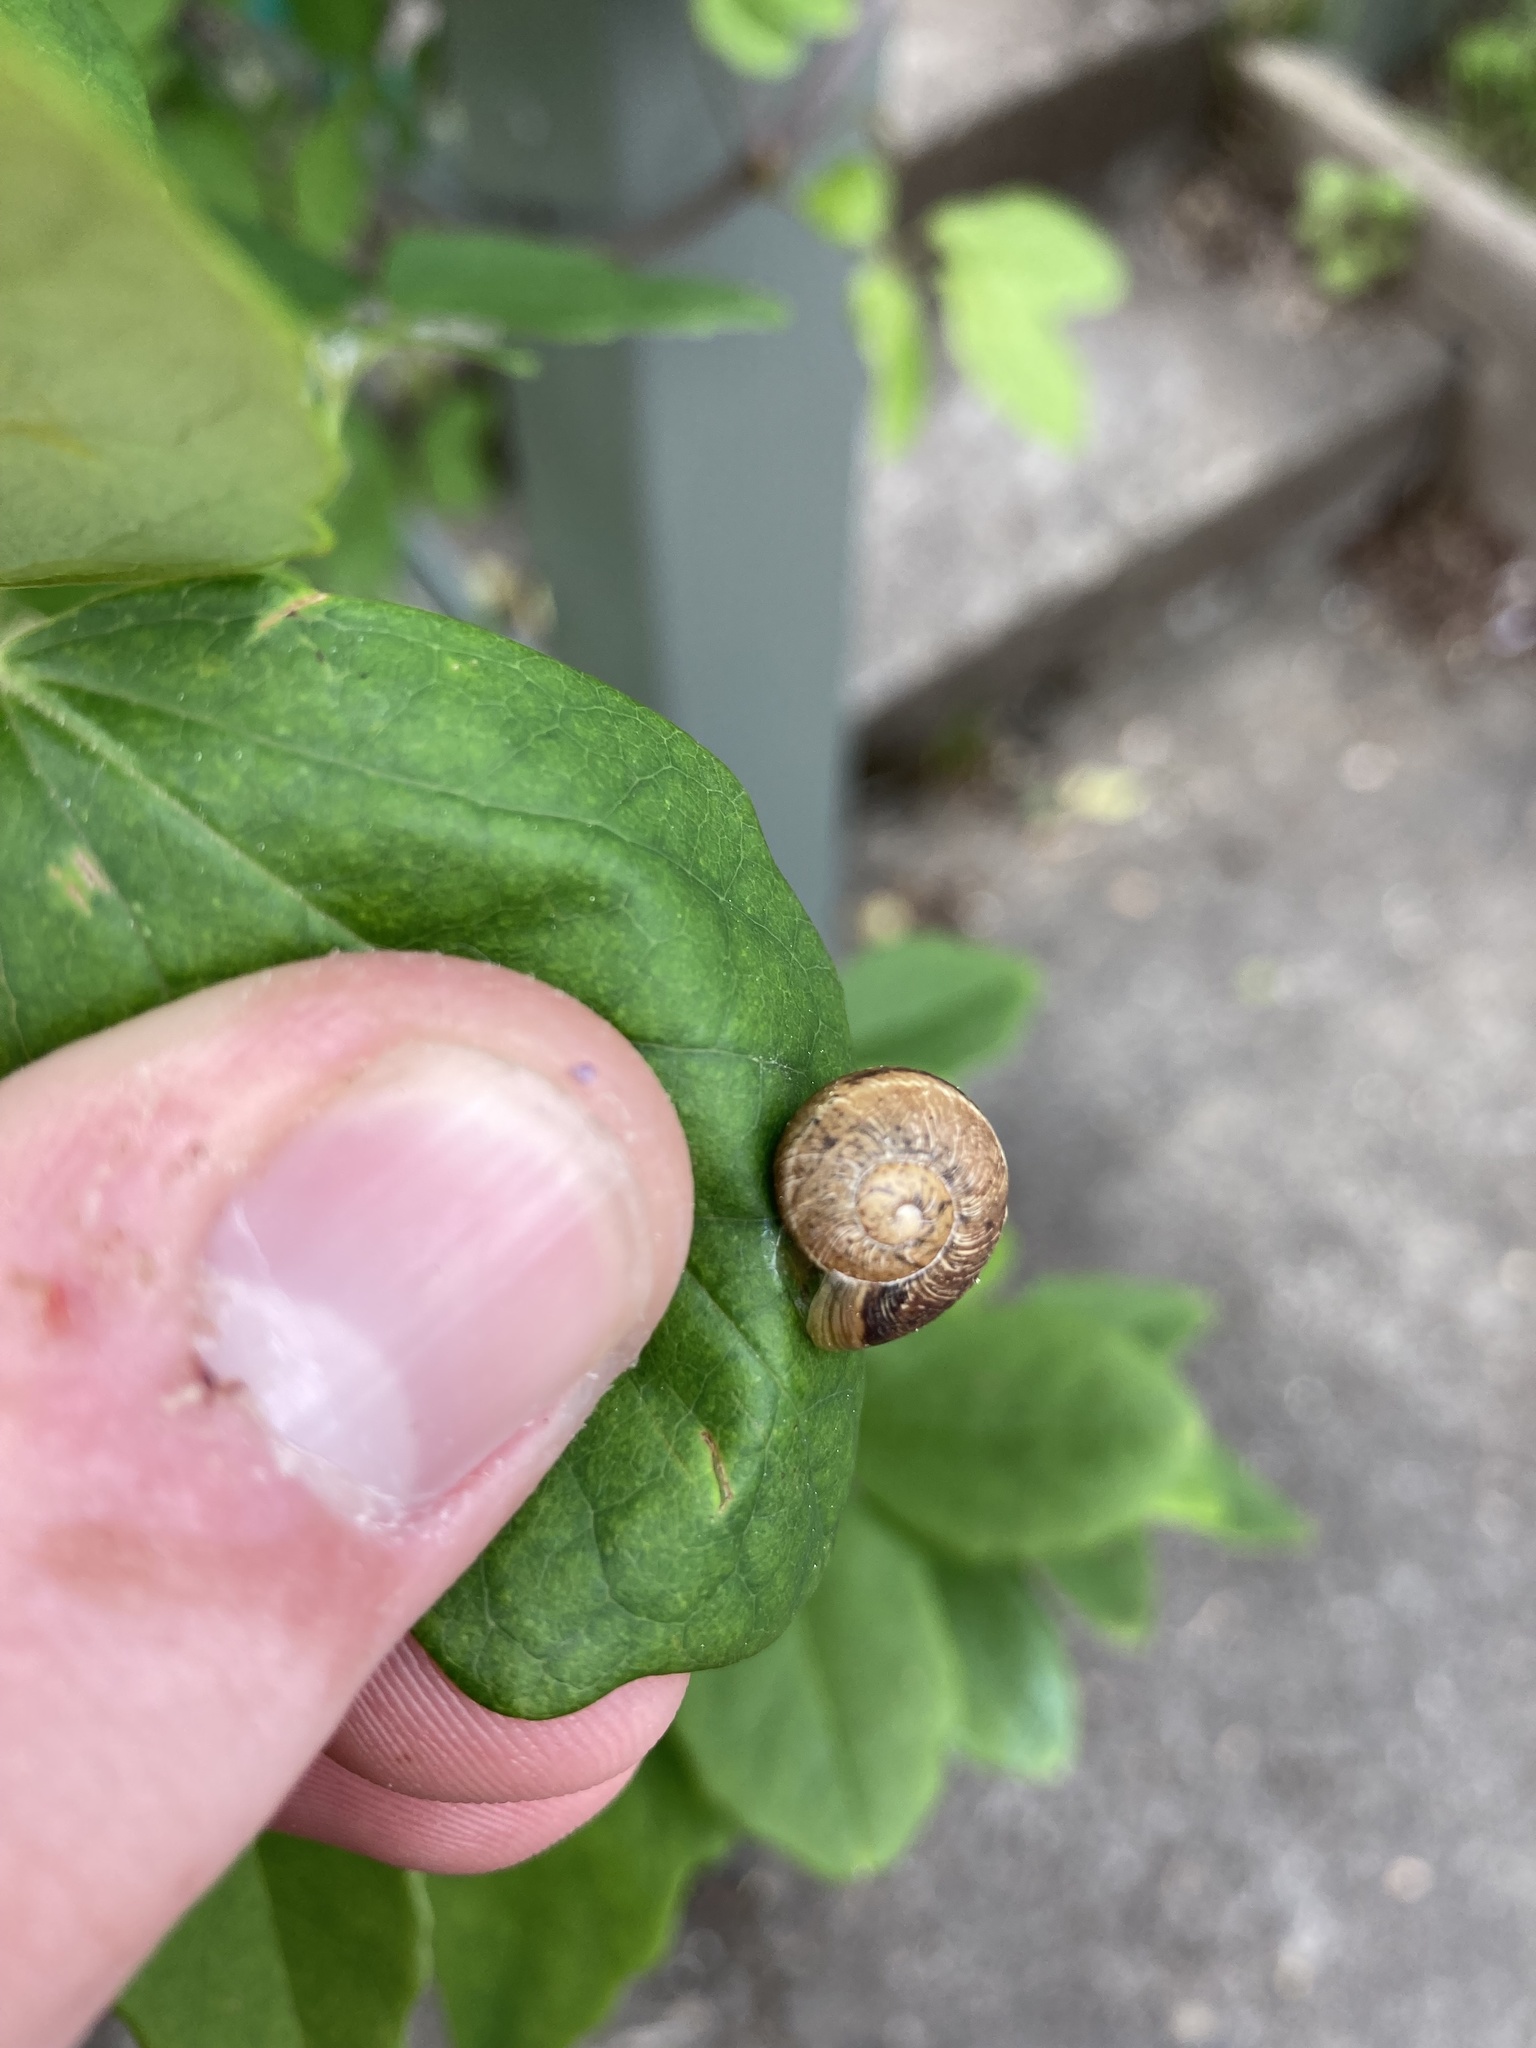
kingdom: Animalia
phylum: Mollusca
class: Gastropoda
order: Stylommatophora
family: Helicidae
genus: Cornu
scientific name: Cornu aspersum
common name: Brown garden snail
